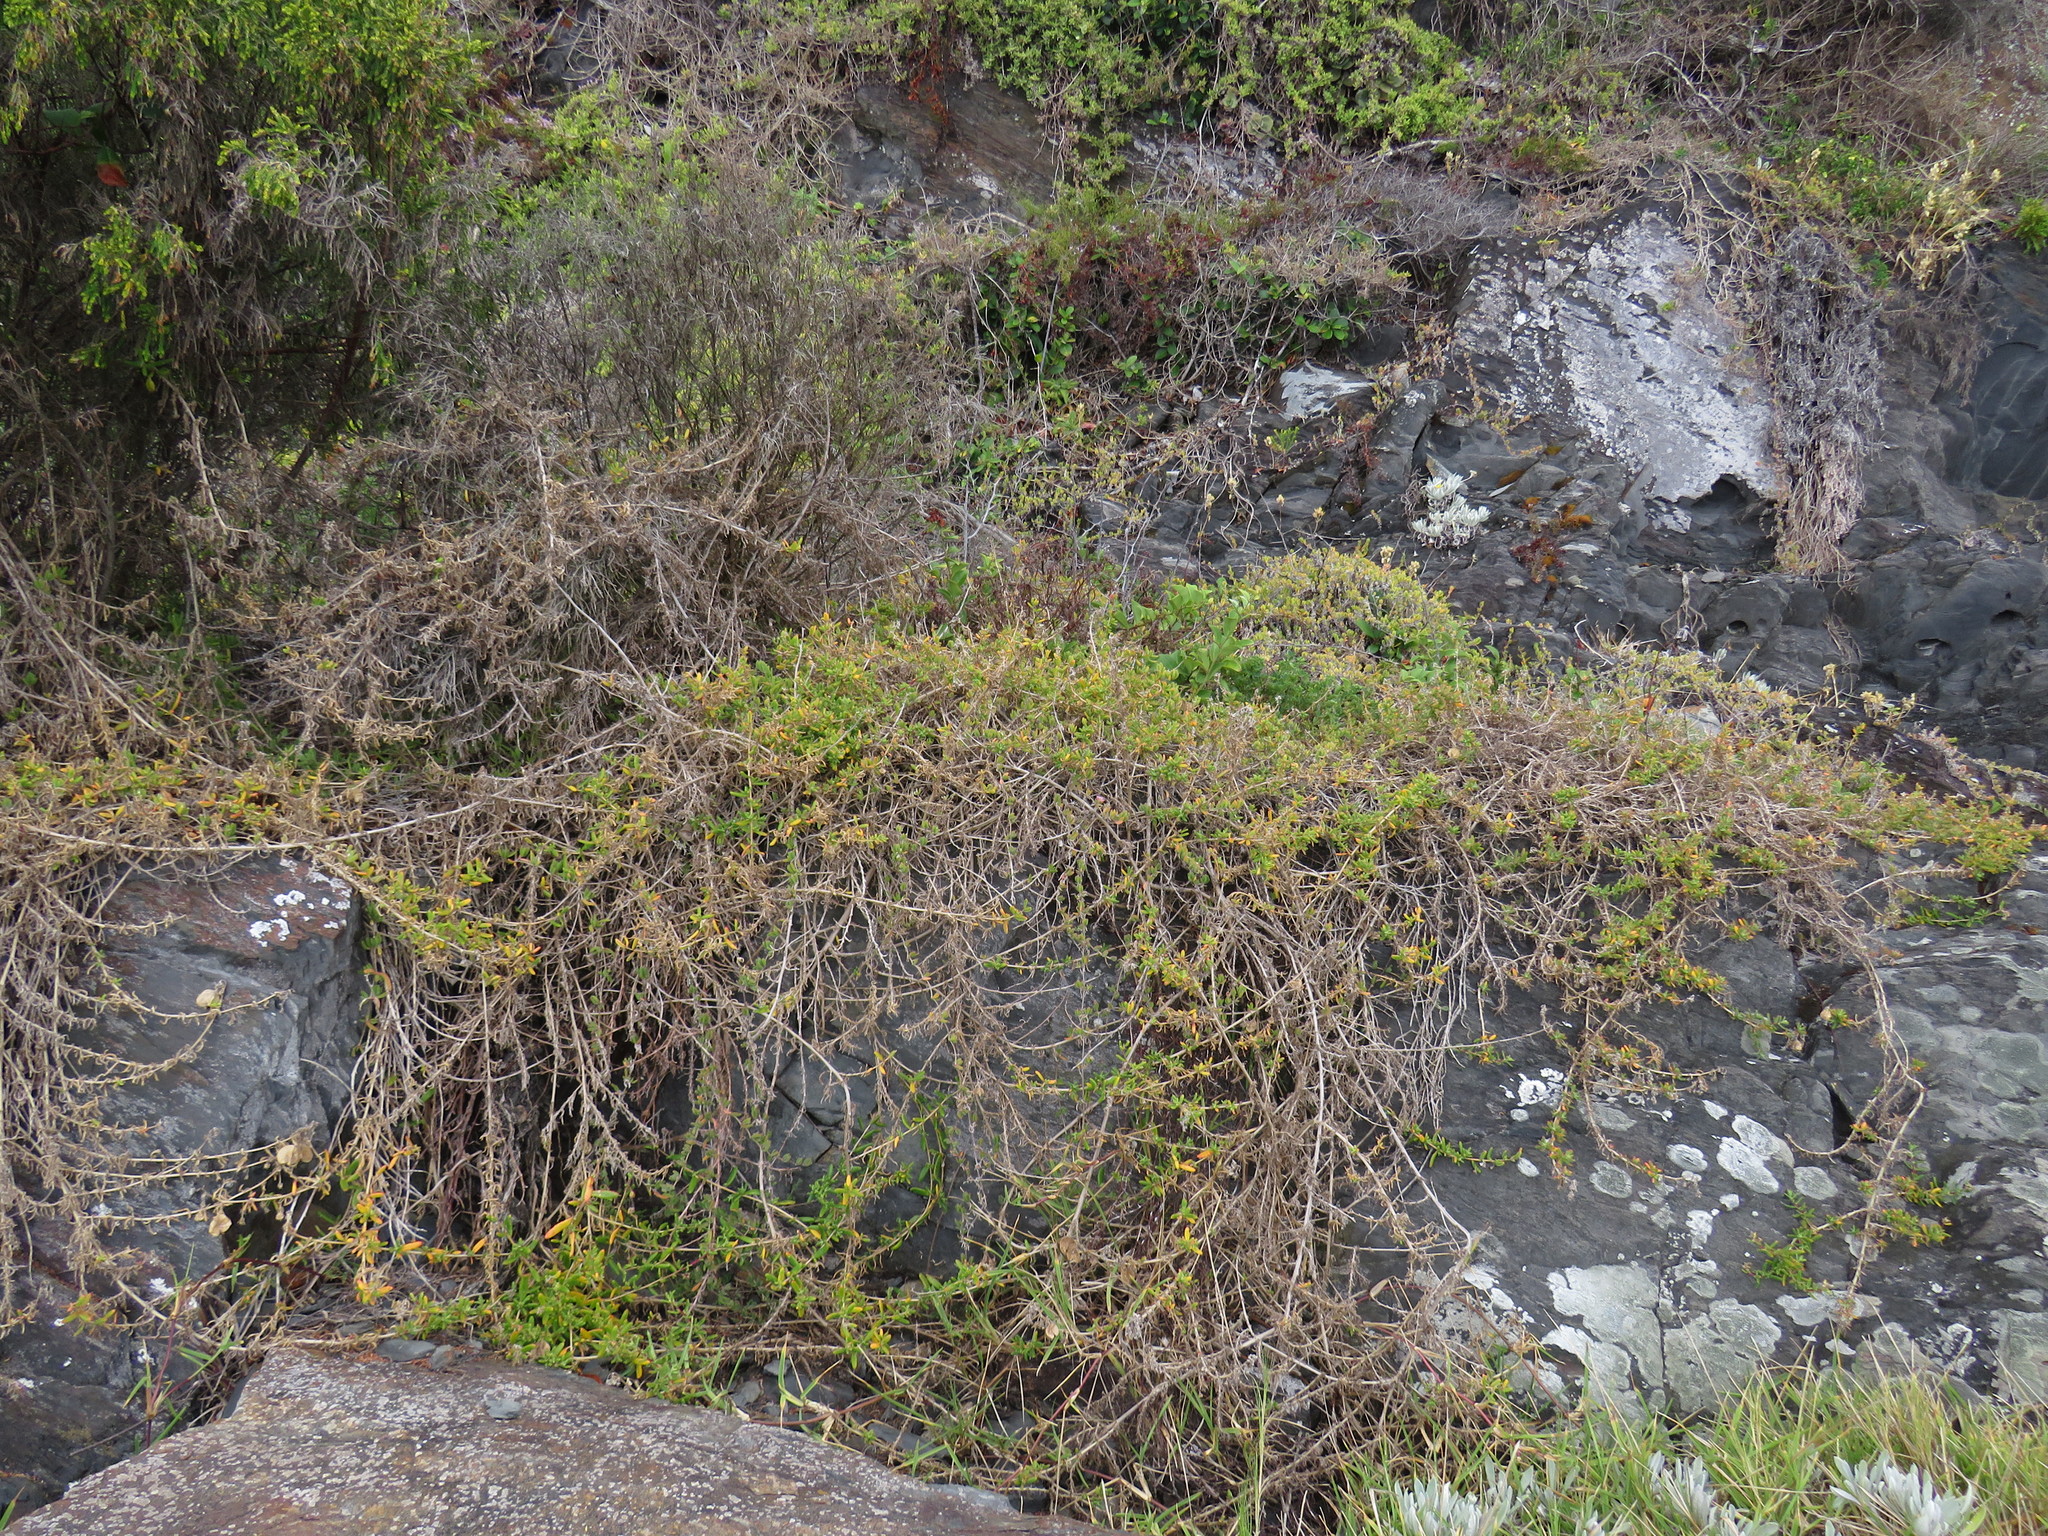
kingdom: Plantae
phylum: Tracheophyta
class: Magnoliopsida
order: Caryophyllales
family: Aizoaceae
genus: Tetragonia
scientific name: Tetragonia fruticosa
